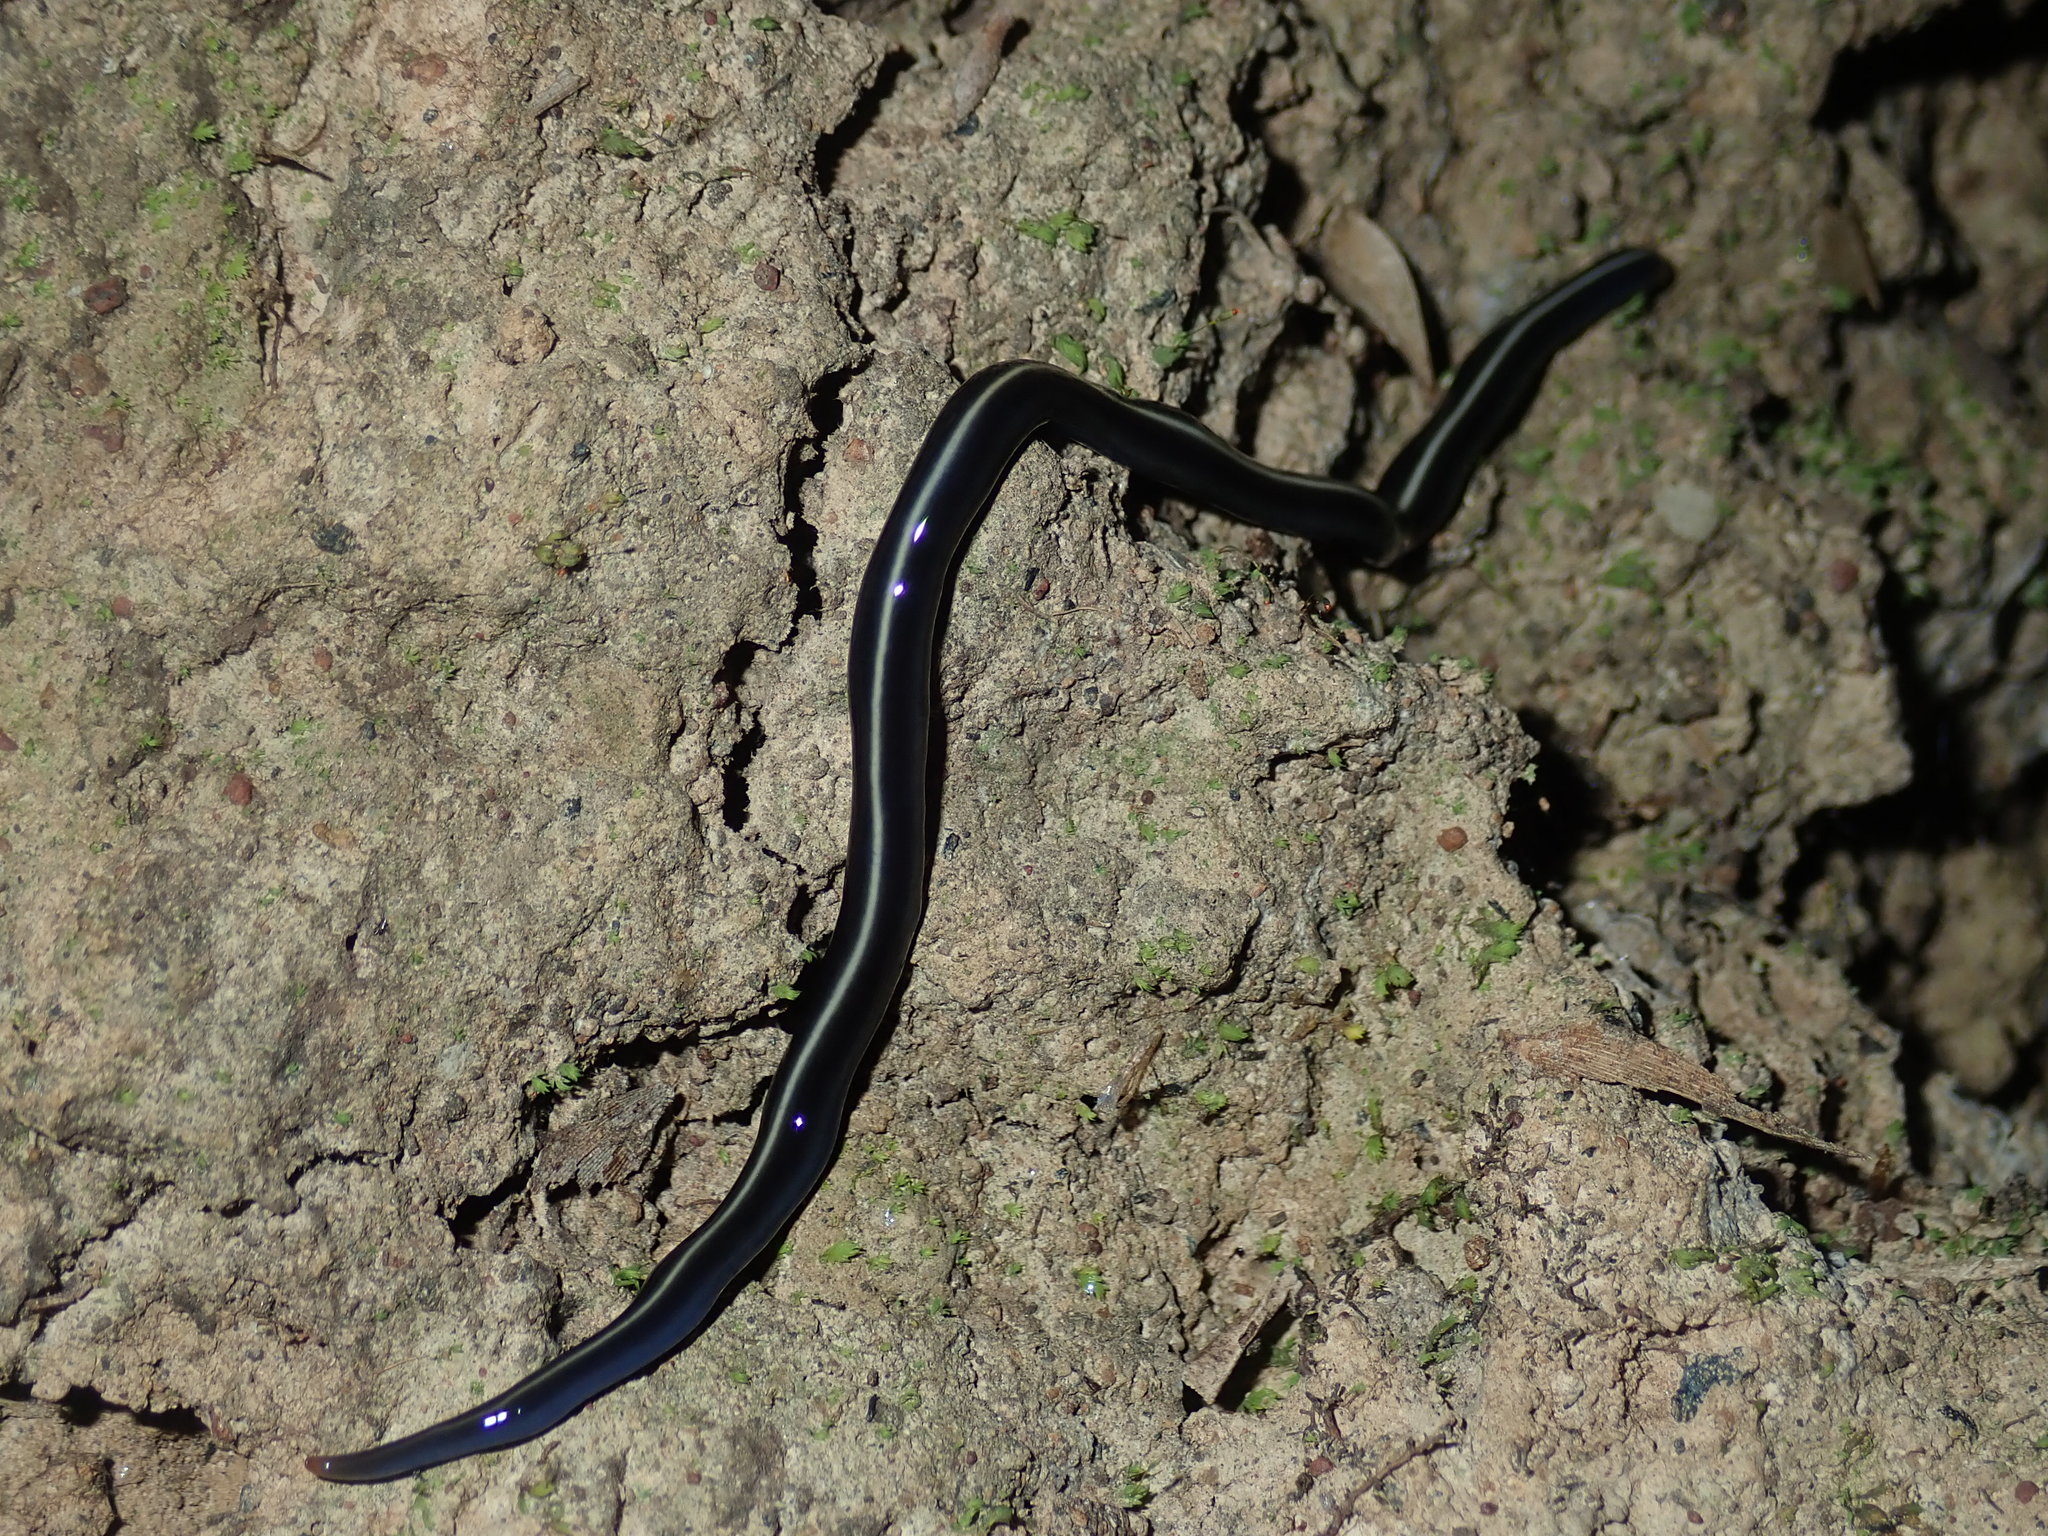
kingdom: Animalia
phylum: Platyhelminthes
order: Tricladida
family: Geoplanidae
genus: Caenoplana
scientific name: Caenoplana coerulea
